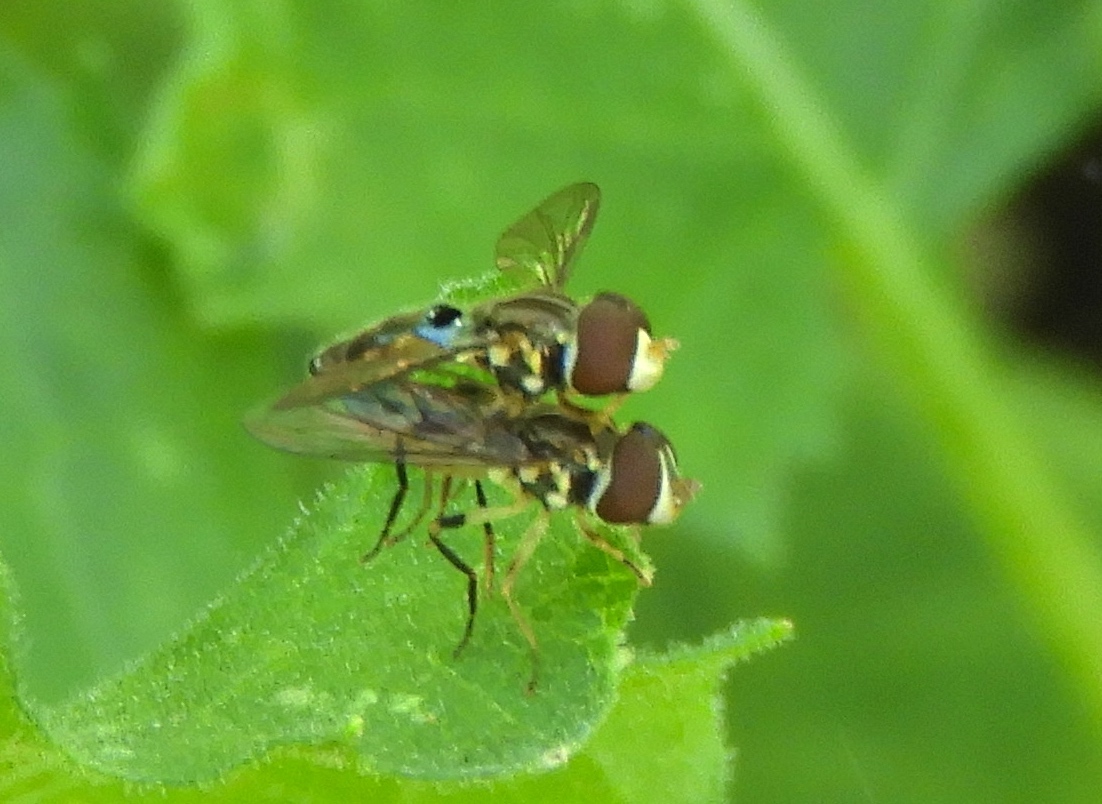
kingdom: Animalia
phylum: Arthropoda
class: Insecta
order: Diptera
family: Syrphidae
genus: Toxomerus
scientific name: Toxomerus
